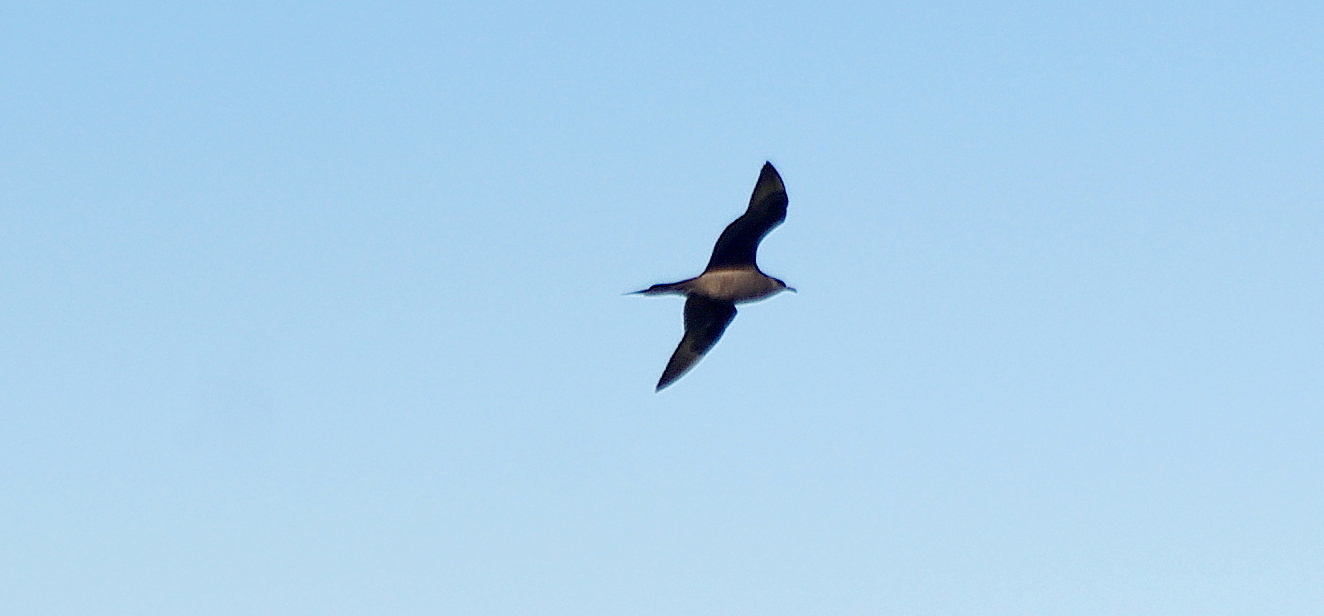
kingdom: Animalia
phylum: Chordata
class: Aves
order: Charadriiformes
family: Stercorariidae
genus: Stercorarius
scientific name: Stercorarius parasiticus
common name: Parasitic jaeger
